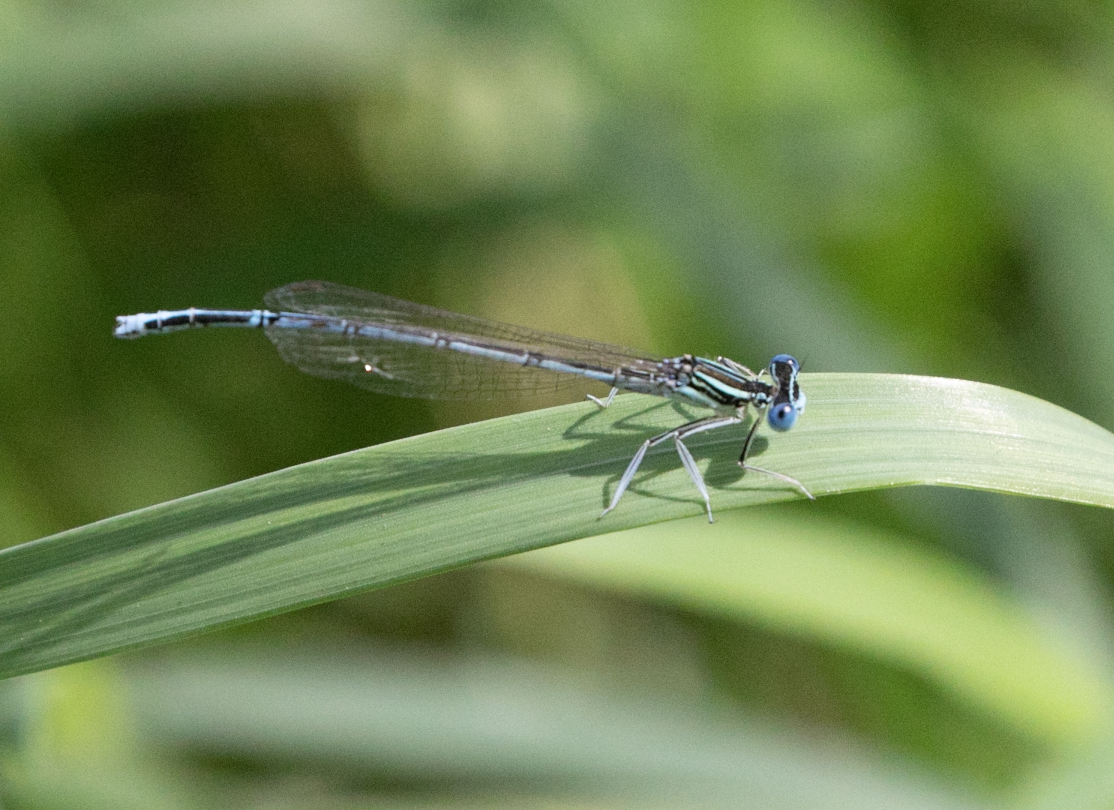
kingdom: Animalia
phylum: Arthropoda
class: Insecta
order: Odonata
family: Platycnemididae
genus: Platycnemis
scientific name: Platycnemis pennipes
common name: White-legged damselfly
